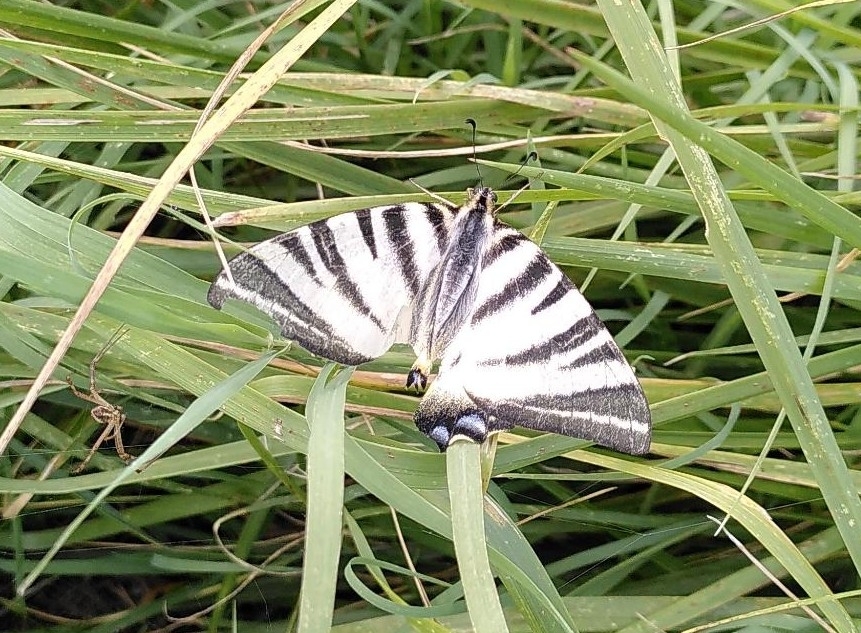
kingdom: Animalia
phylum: Arthropoda
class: Insecta
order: Lepidoptera
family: Papilionidae
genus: Iphiclides
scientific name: Iphiclides podalirius
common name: Scarce swallowtail
